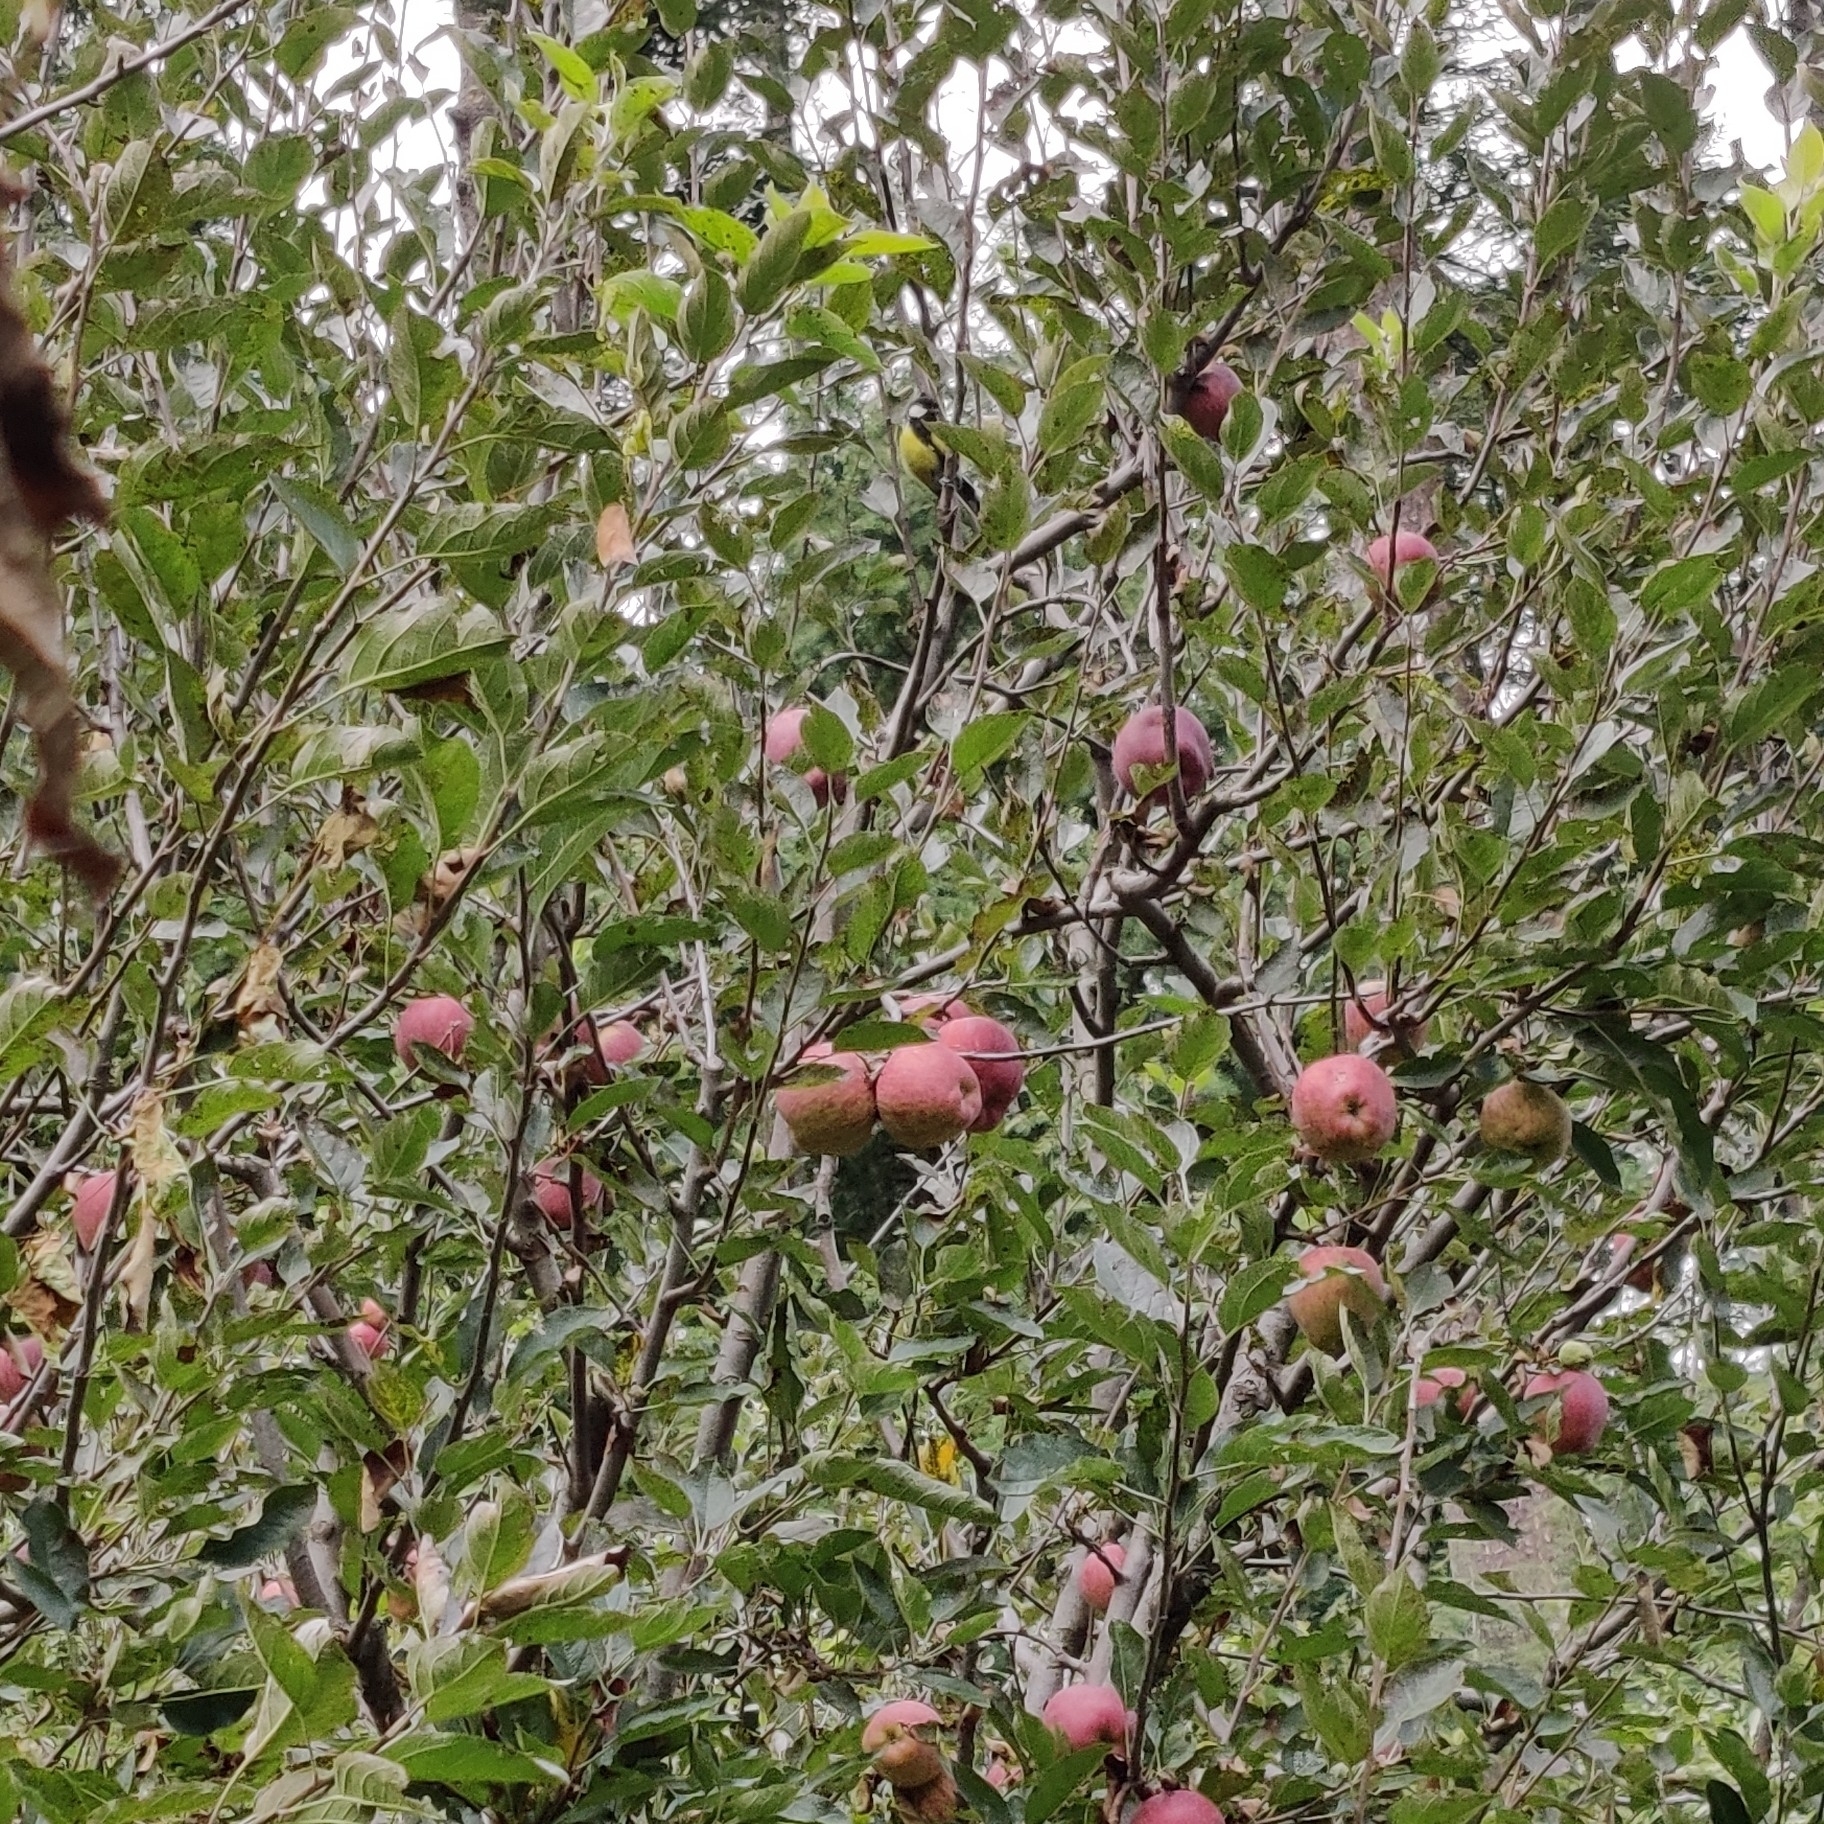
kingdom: Animalia
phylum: Chordata
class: Aves
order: Passeriformes
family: Paridae
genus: Parus
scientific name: Parus monticolus
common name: Green-backed tit
